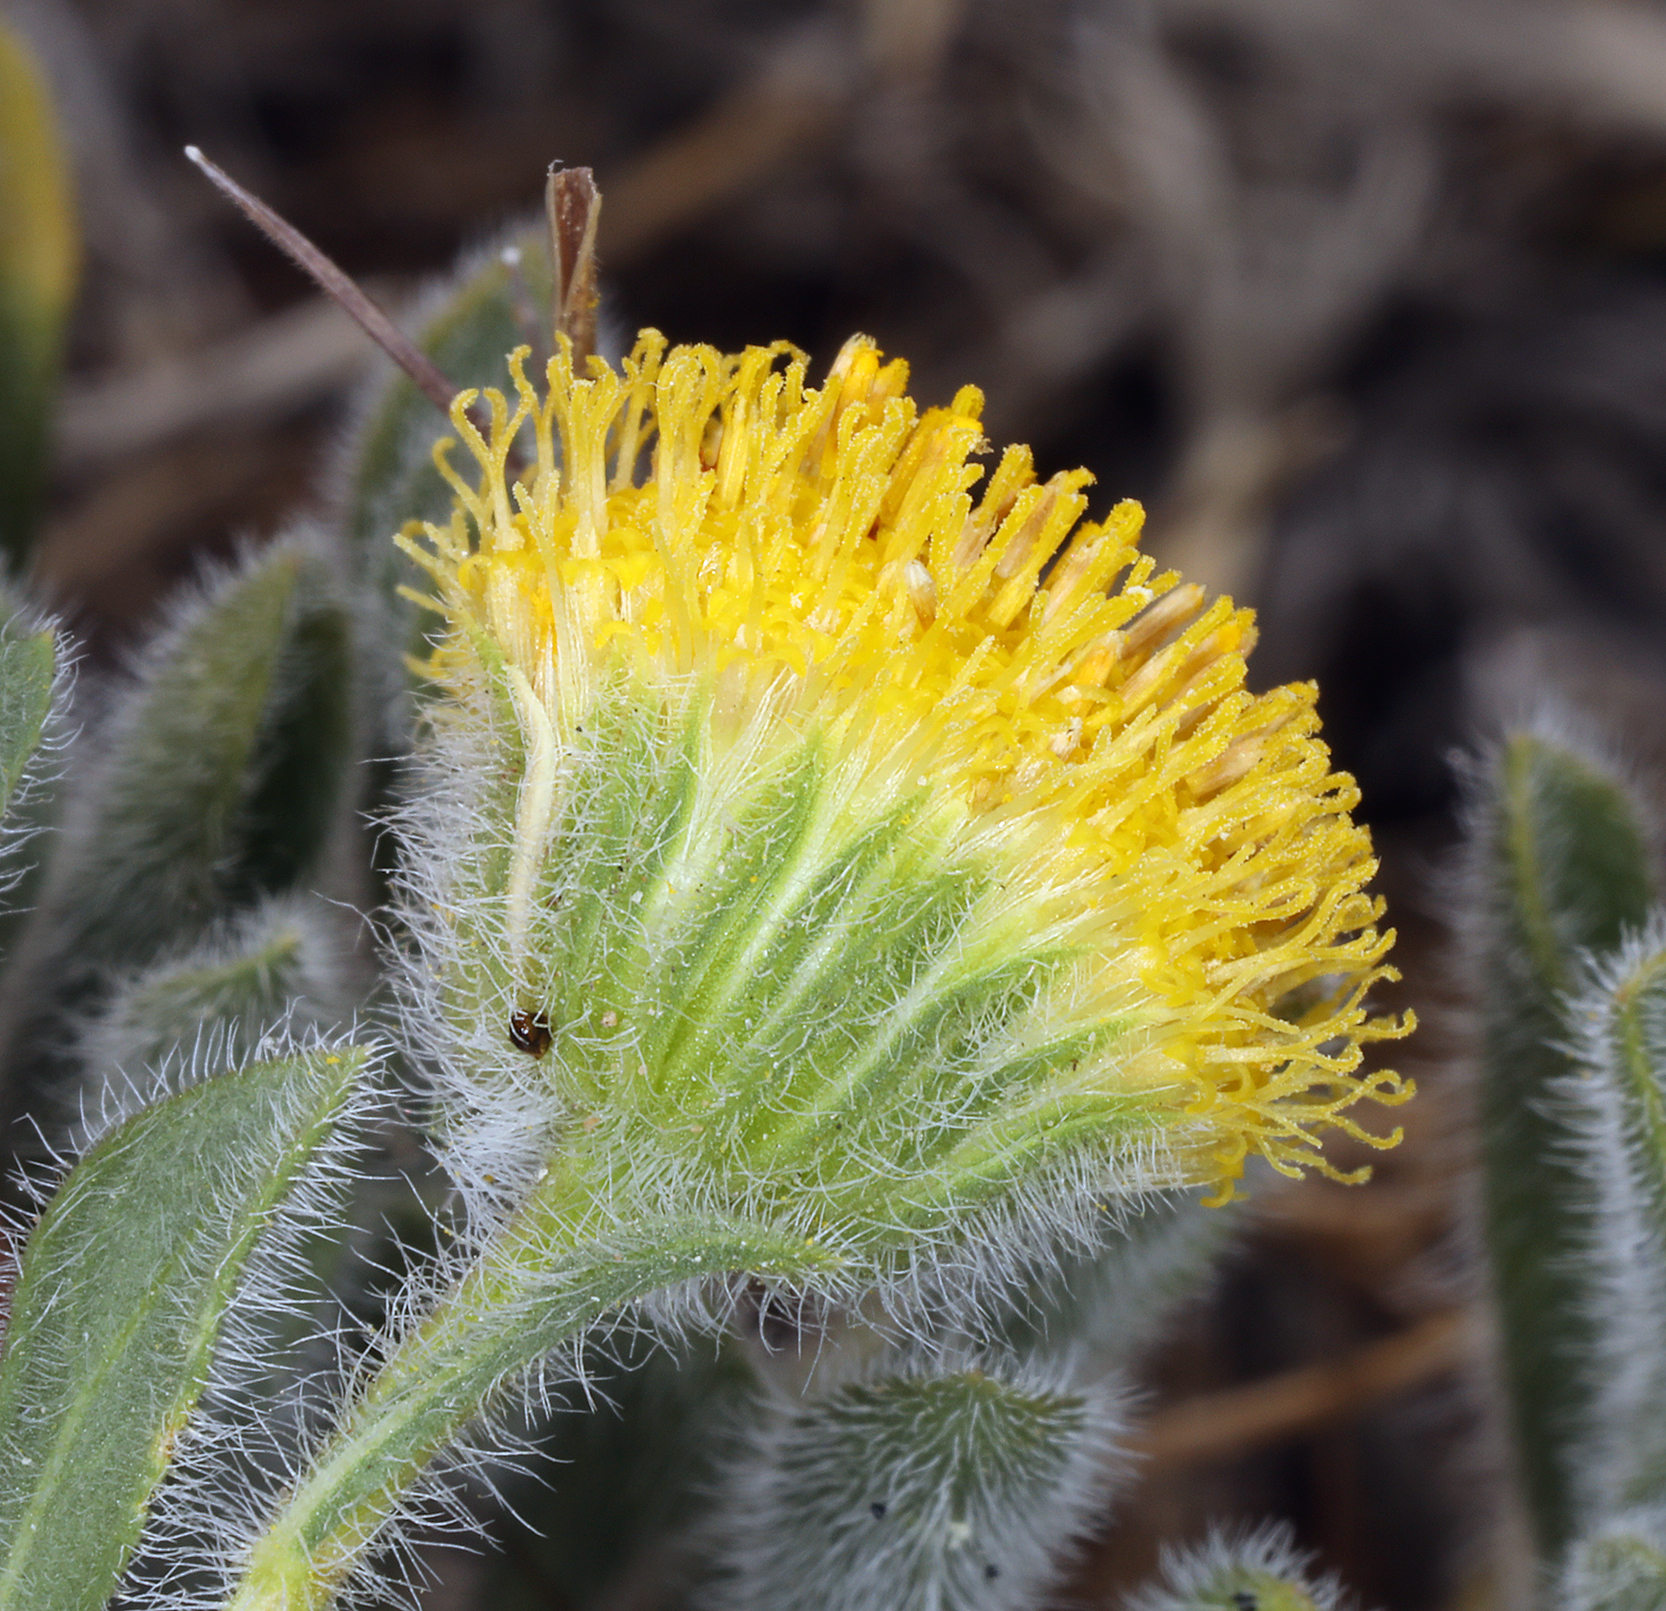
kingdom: Plantae
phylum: Tracheophyta
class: Magnoliopsida
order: Asterales
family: Asteraceae
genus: Erigeron
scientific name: Erigeron aphanactis
